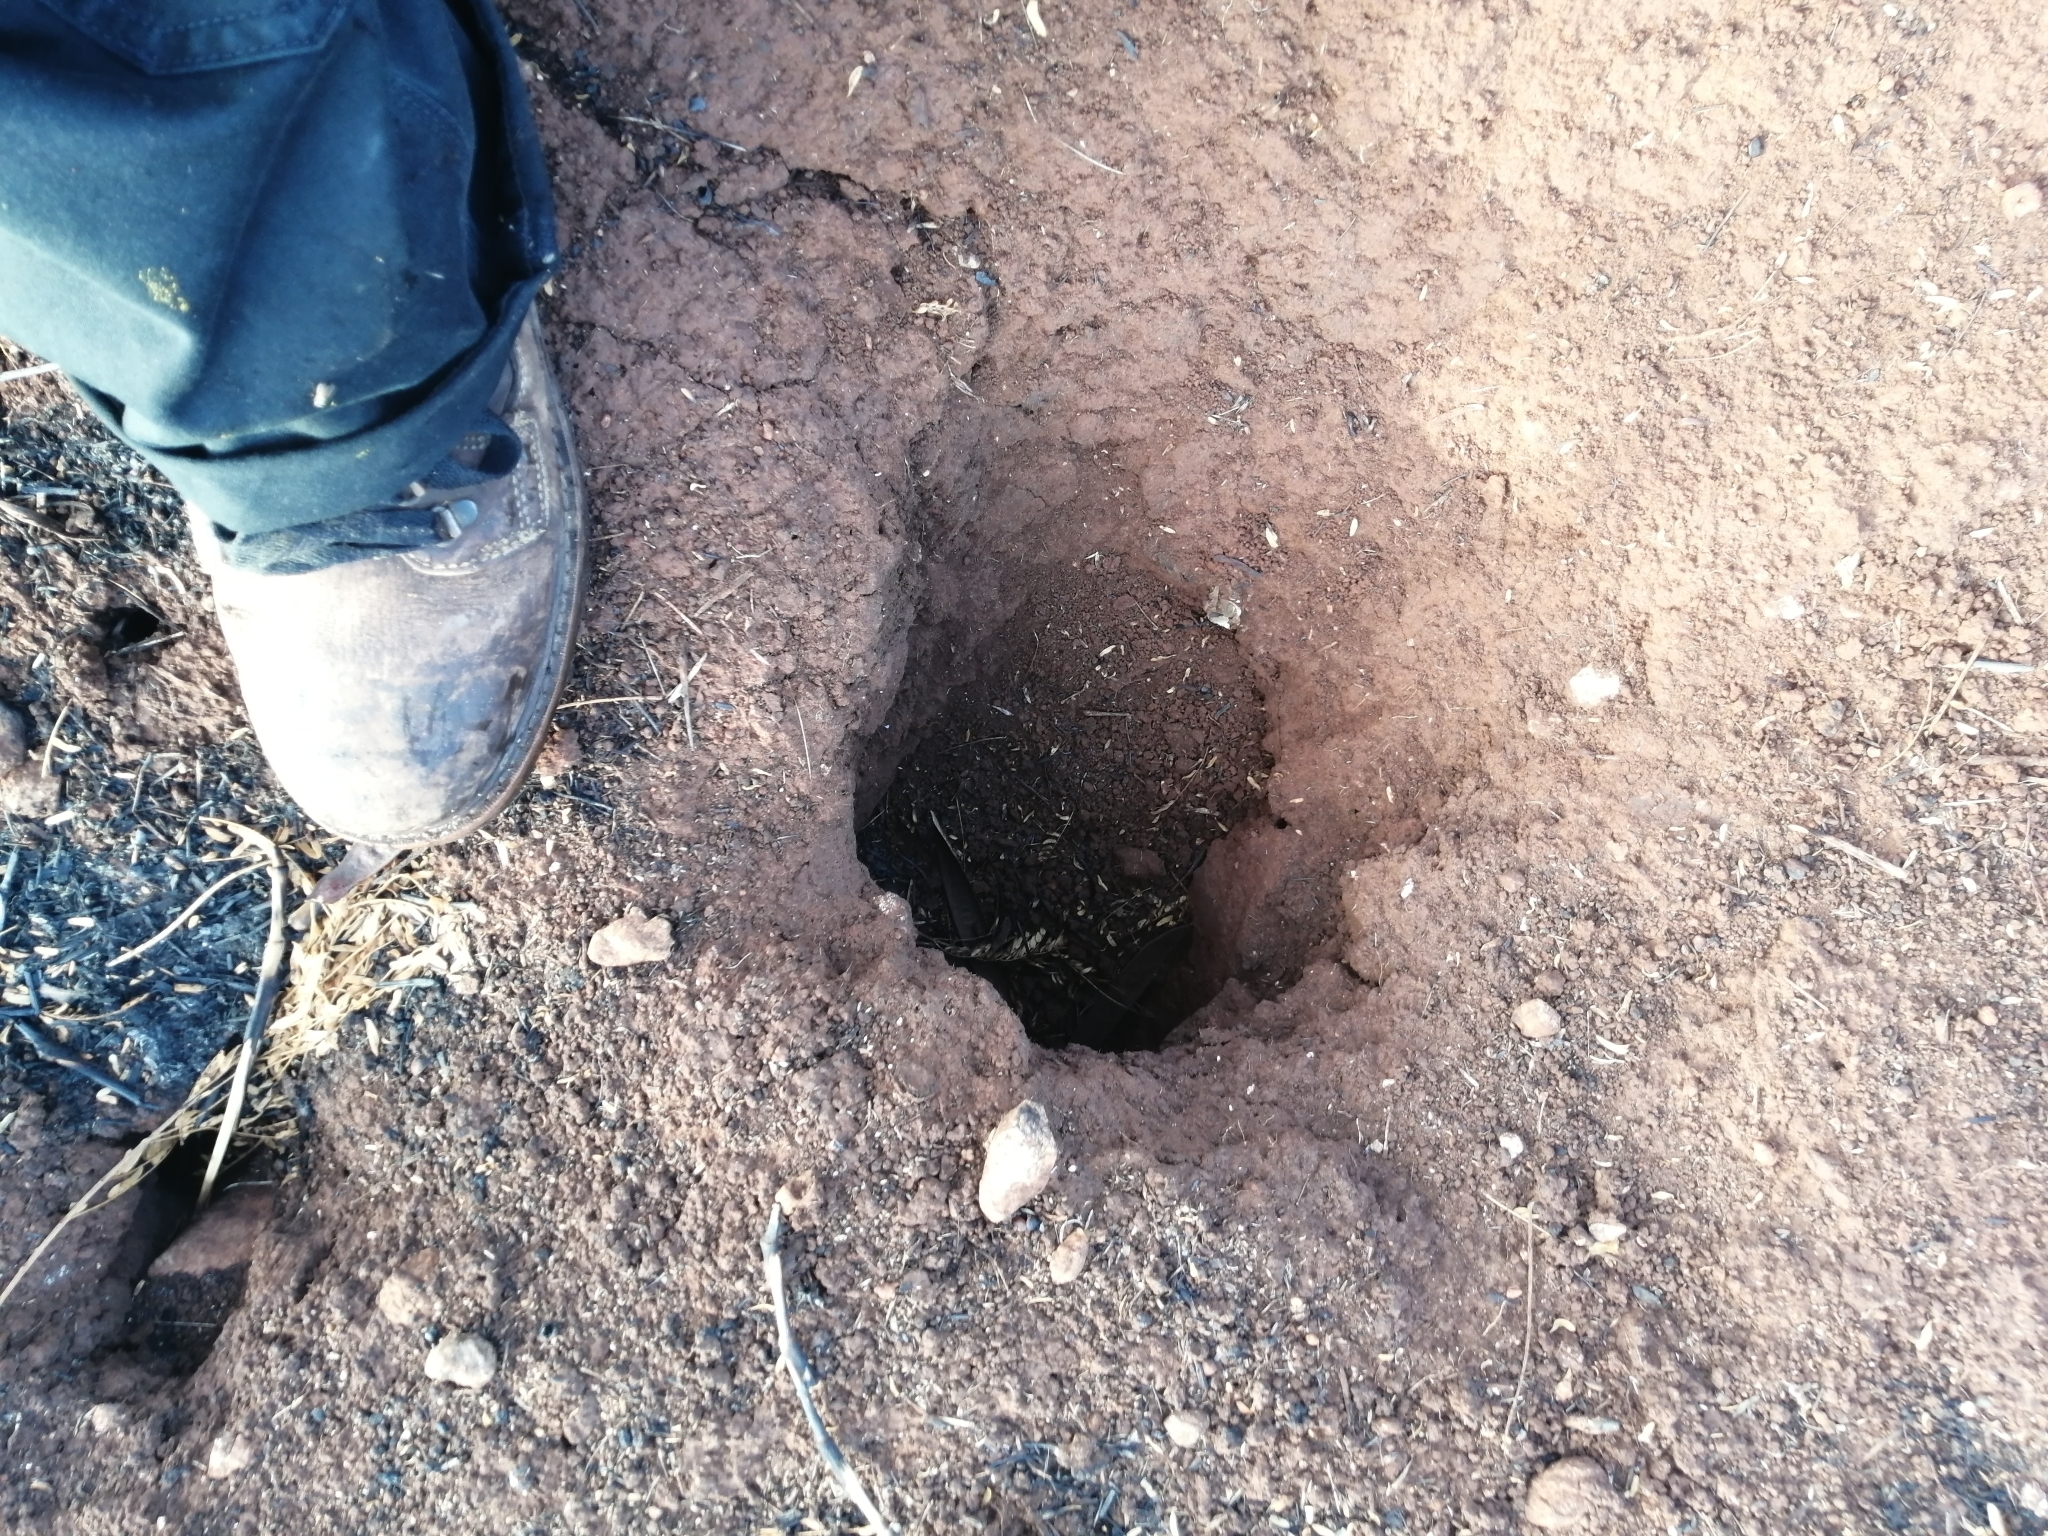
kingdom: Animalia
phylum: Chordata
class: Mammalia
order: Rodentia
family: Geomyidae
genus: Orthogeomys
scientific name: Orthogeomys hispidus
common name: Hispid pocket gopher
